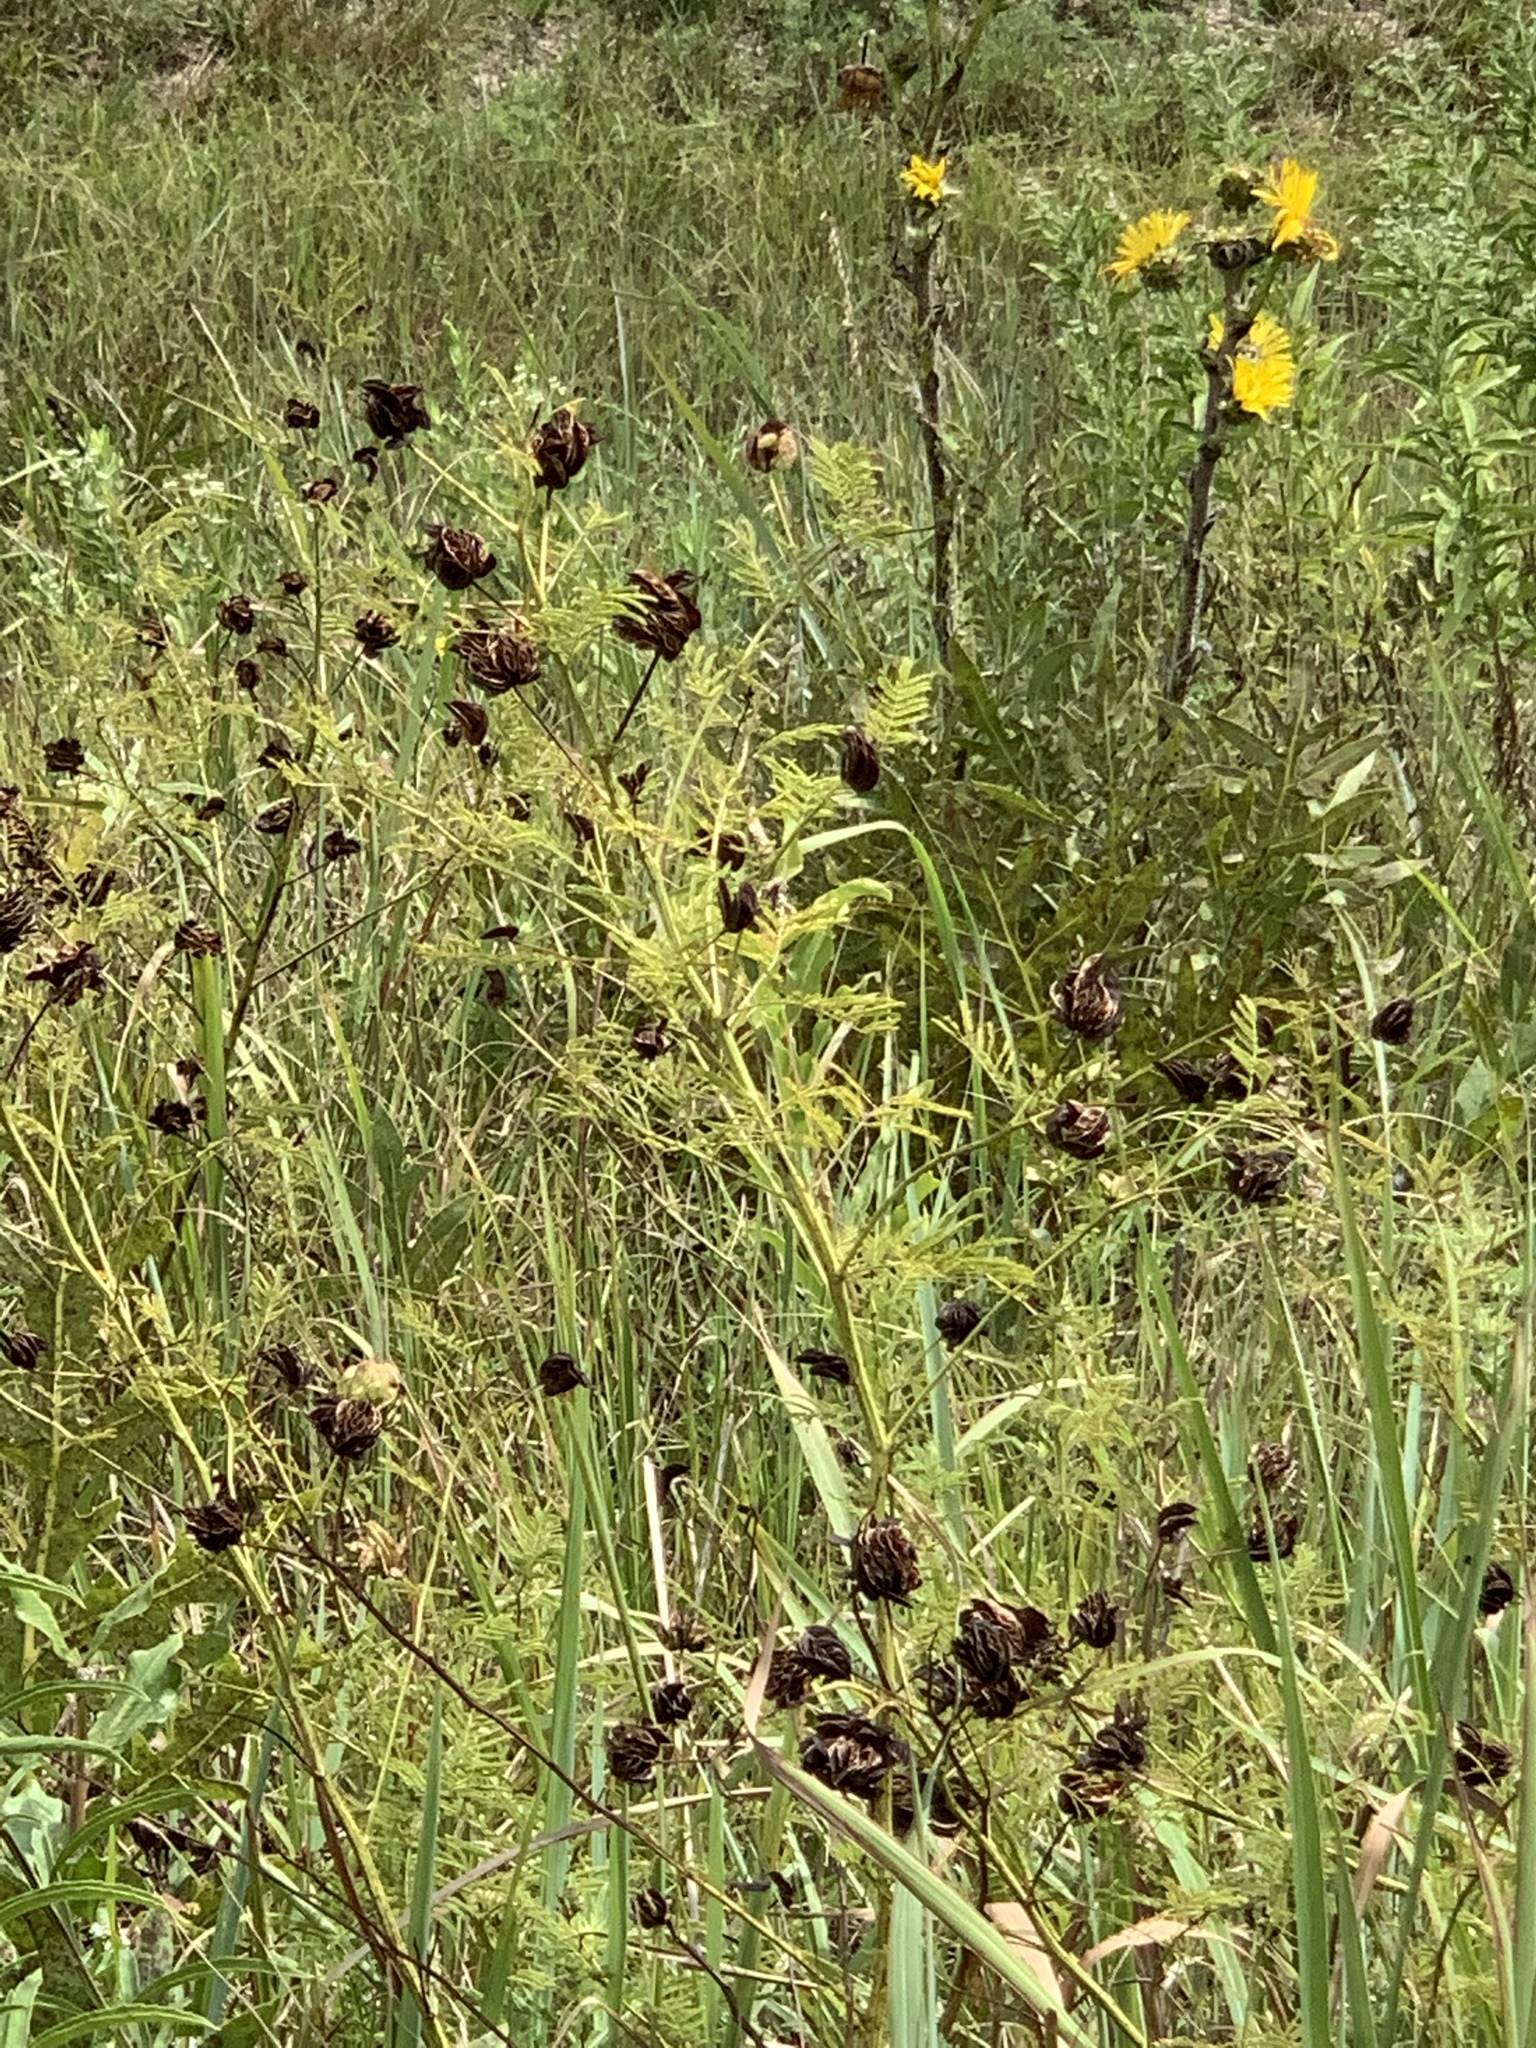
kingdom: Plantae
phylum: Tracheophyta
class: Magnoliopsida
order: Fabales
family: Fabaceae
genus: Desmanthus
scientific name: Desmanthus illinoensis
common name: Illinois bundle-flower
